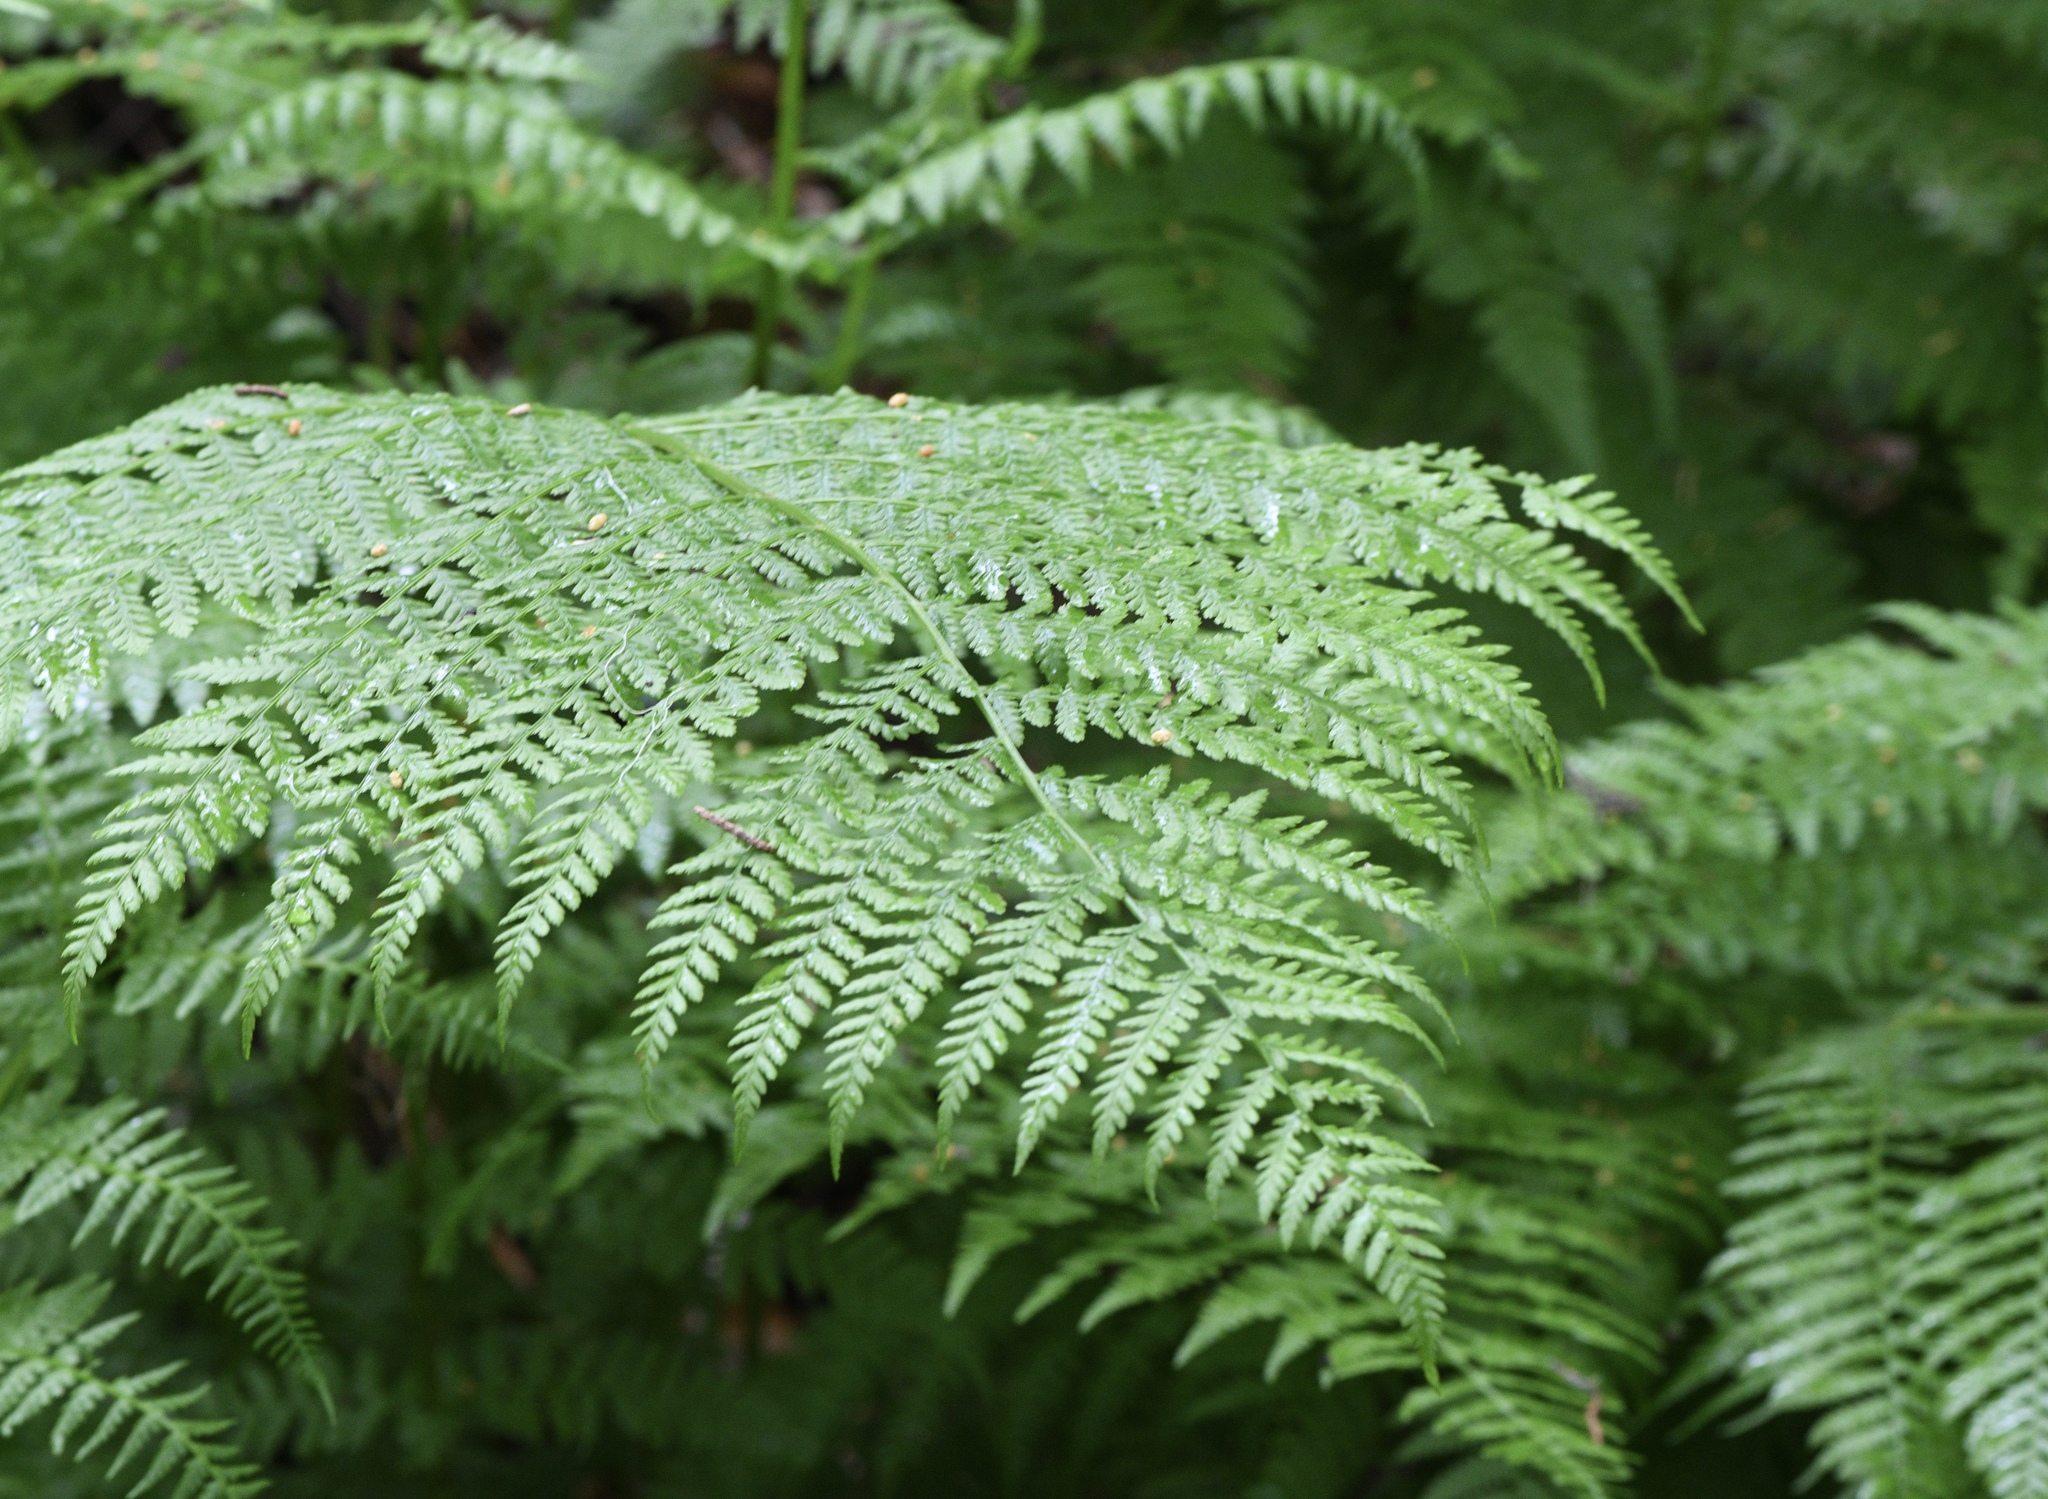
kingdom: Plantae
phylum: Tracheophyta
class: Polypodiopsida
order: Polypodiales
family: Athyriaceae
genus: Athyrium
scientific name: Athyrium filix-femina
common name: Lady fern
